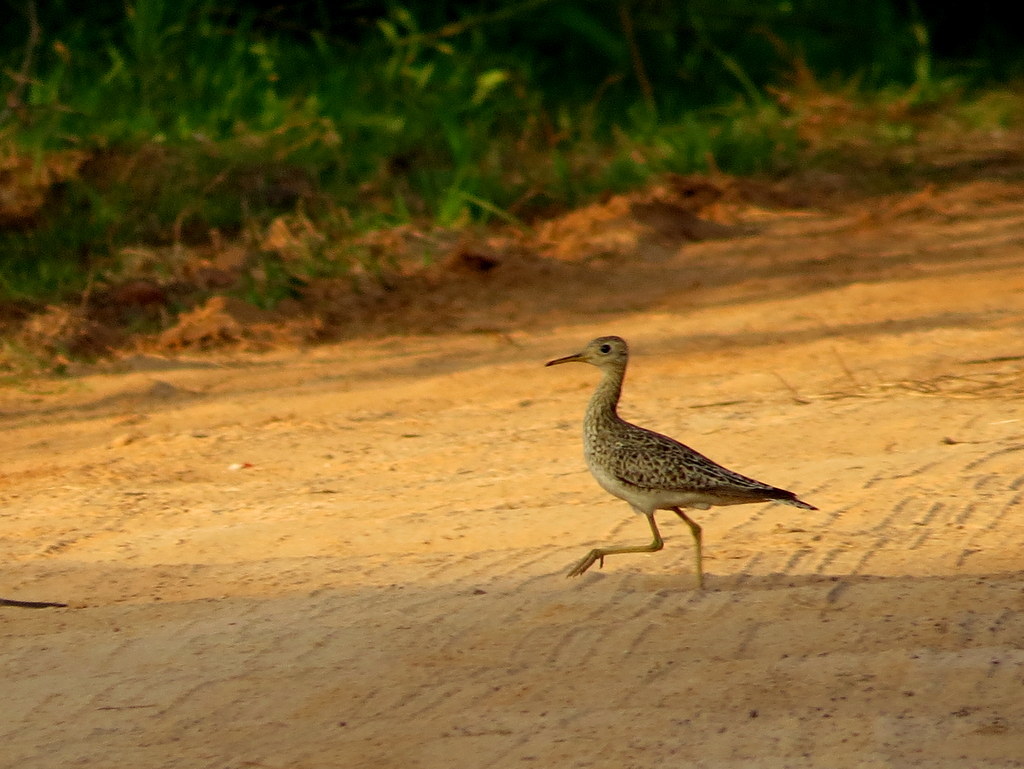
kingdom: Animalia
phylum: Chordata
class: Aves
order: Charadriiformes
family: Scolopacidae
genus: Bartramia
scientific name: Bartramia longicauda
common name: Upland sandpiper
